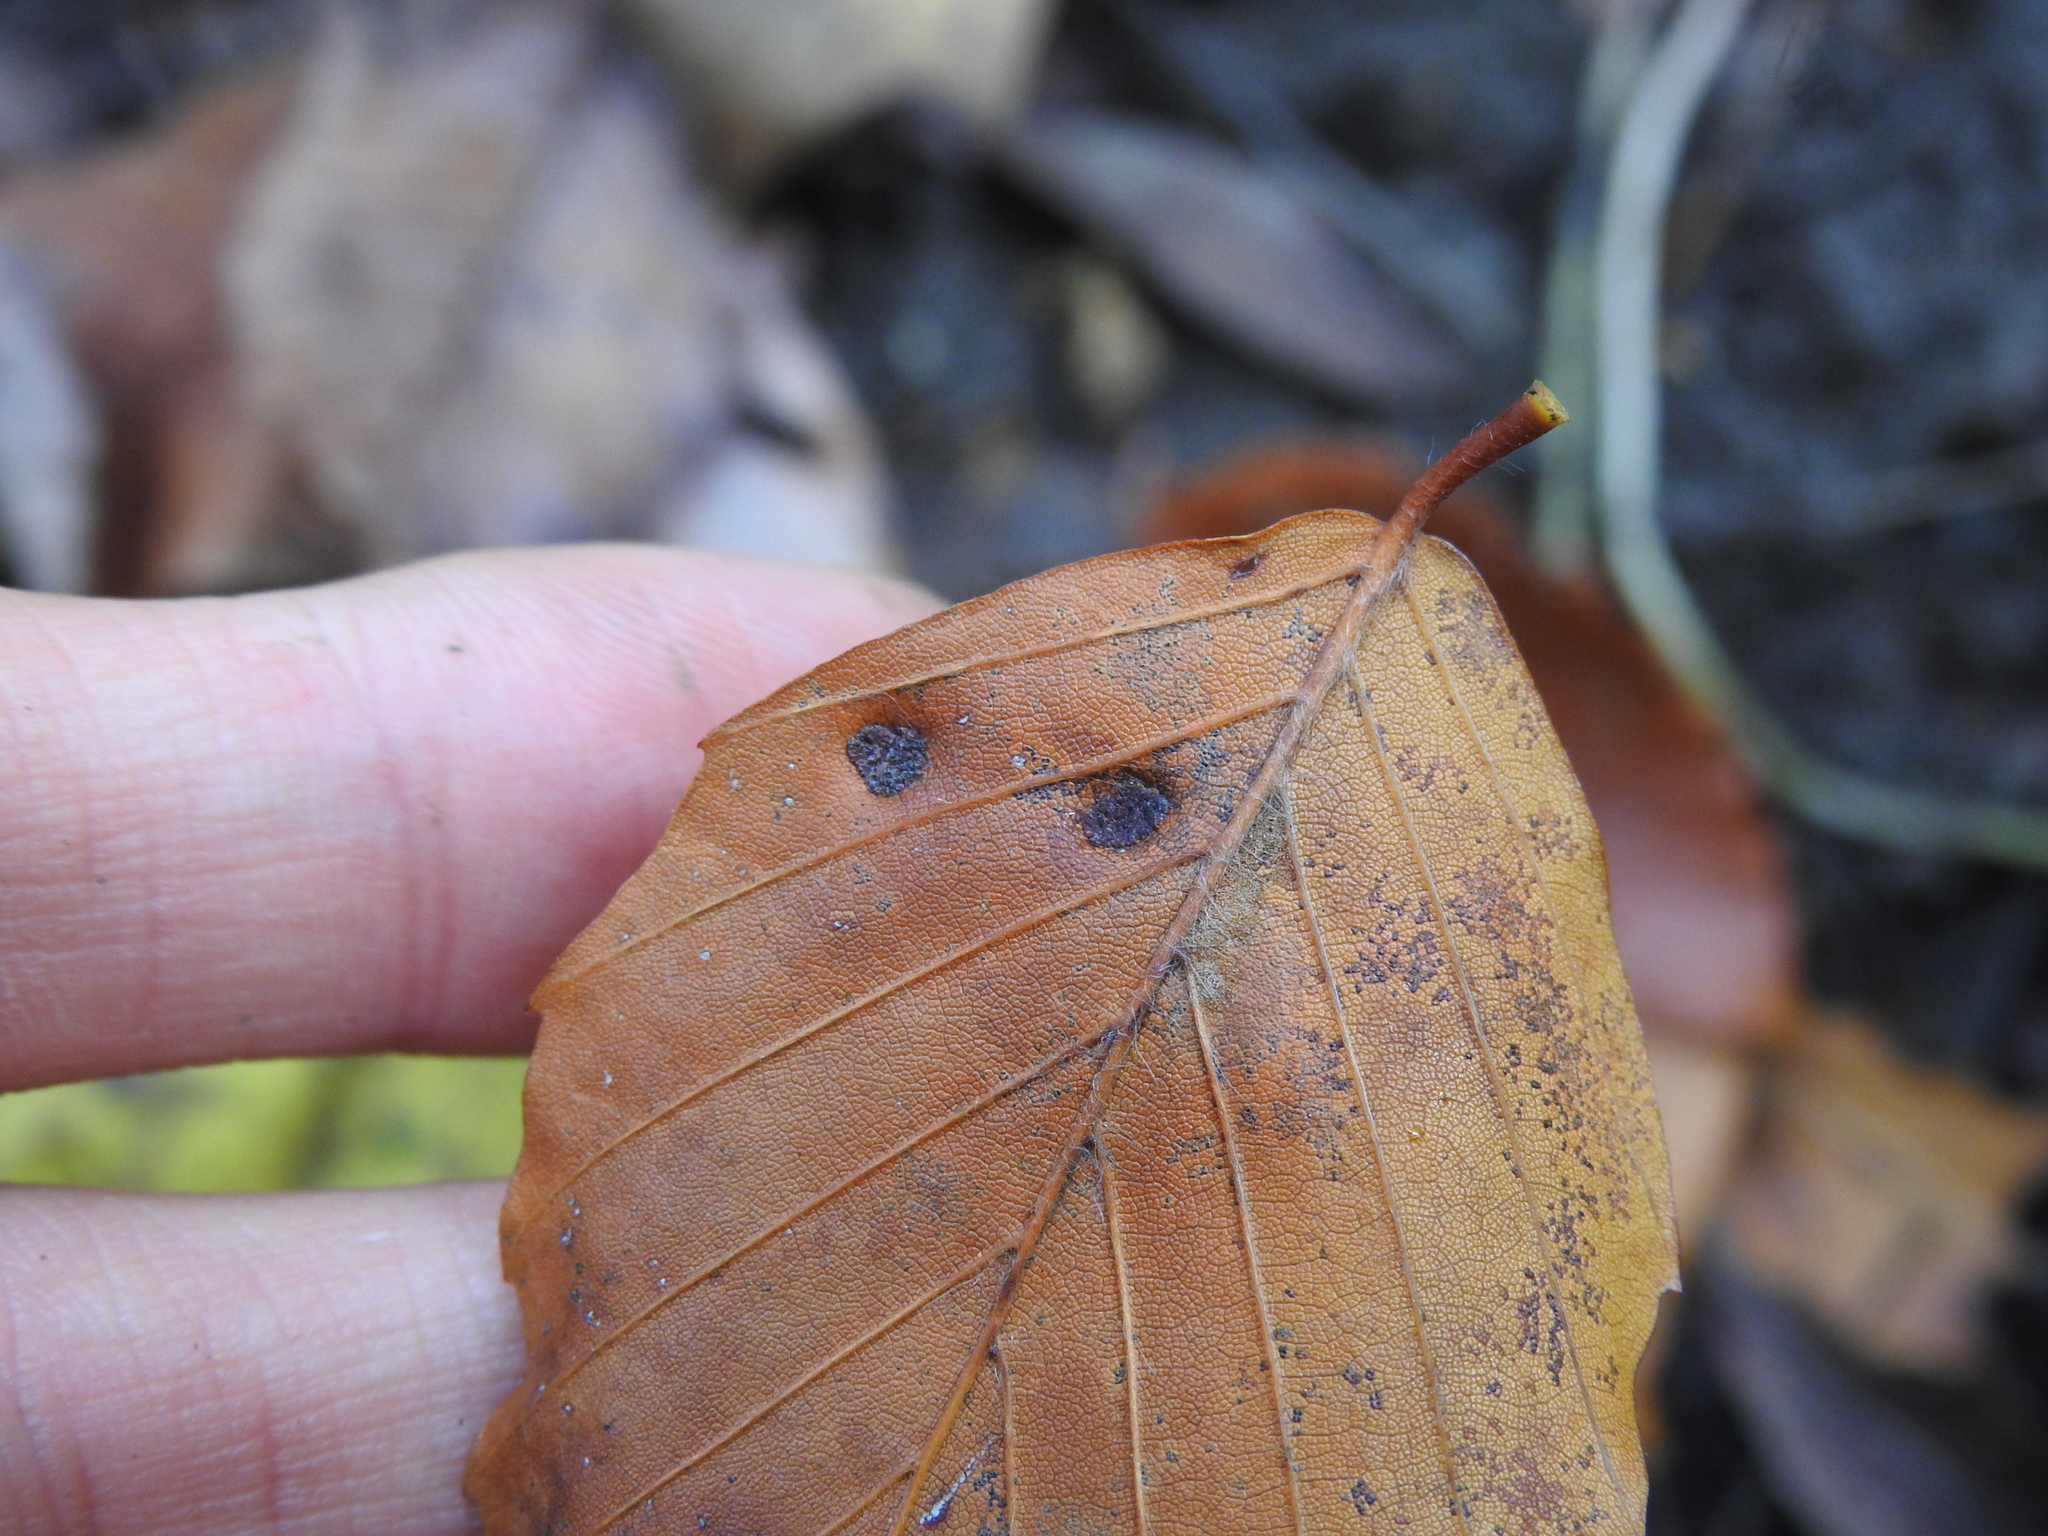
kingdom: Animalia
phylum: Arthropoda
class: Arachnida
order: Trombidiformes
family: Eriophyidae
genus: Acalitus
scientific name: Acalitus
